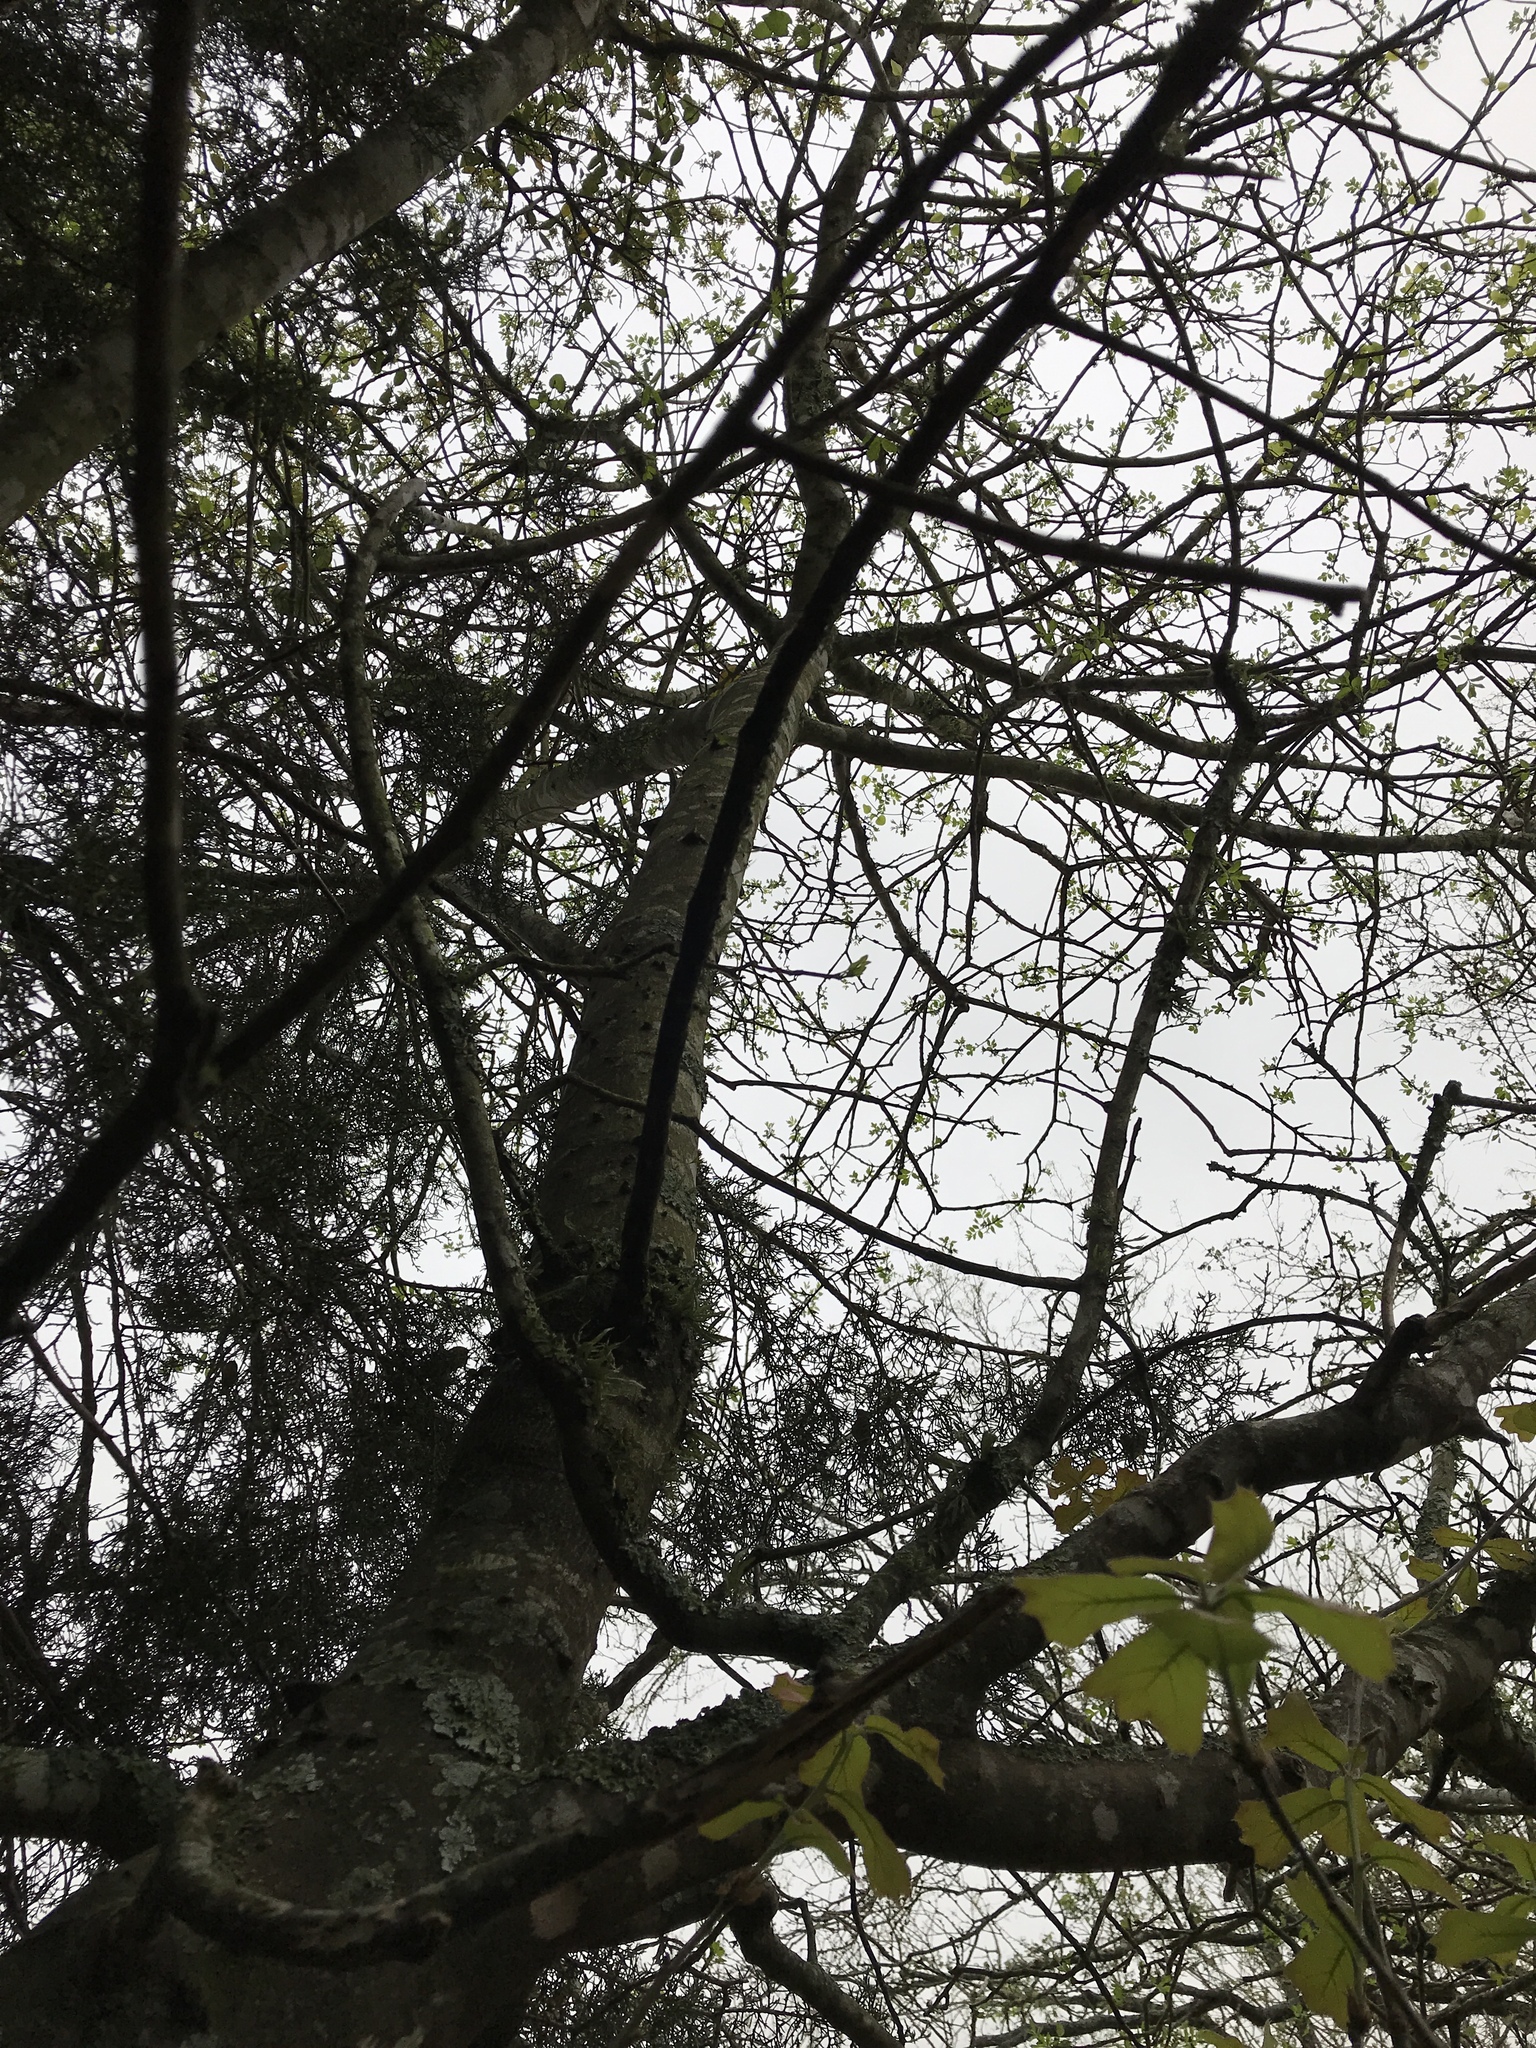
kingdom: Plantae
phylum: Tracheophyta
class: Magnoliopsida
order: Sapindales
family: Rutaceae
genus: Zanthoxylum
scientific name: Zanthoxylum clava-herculis
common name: Hercules'-club
